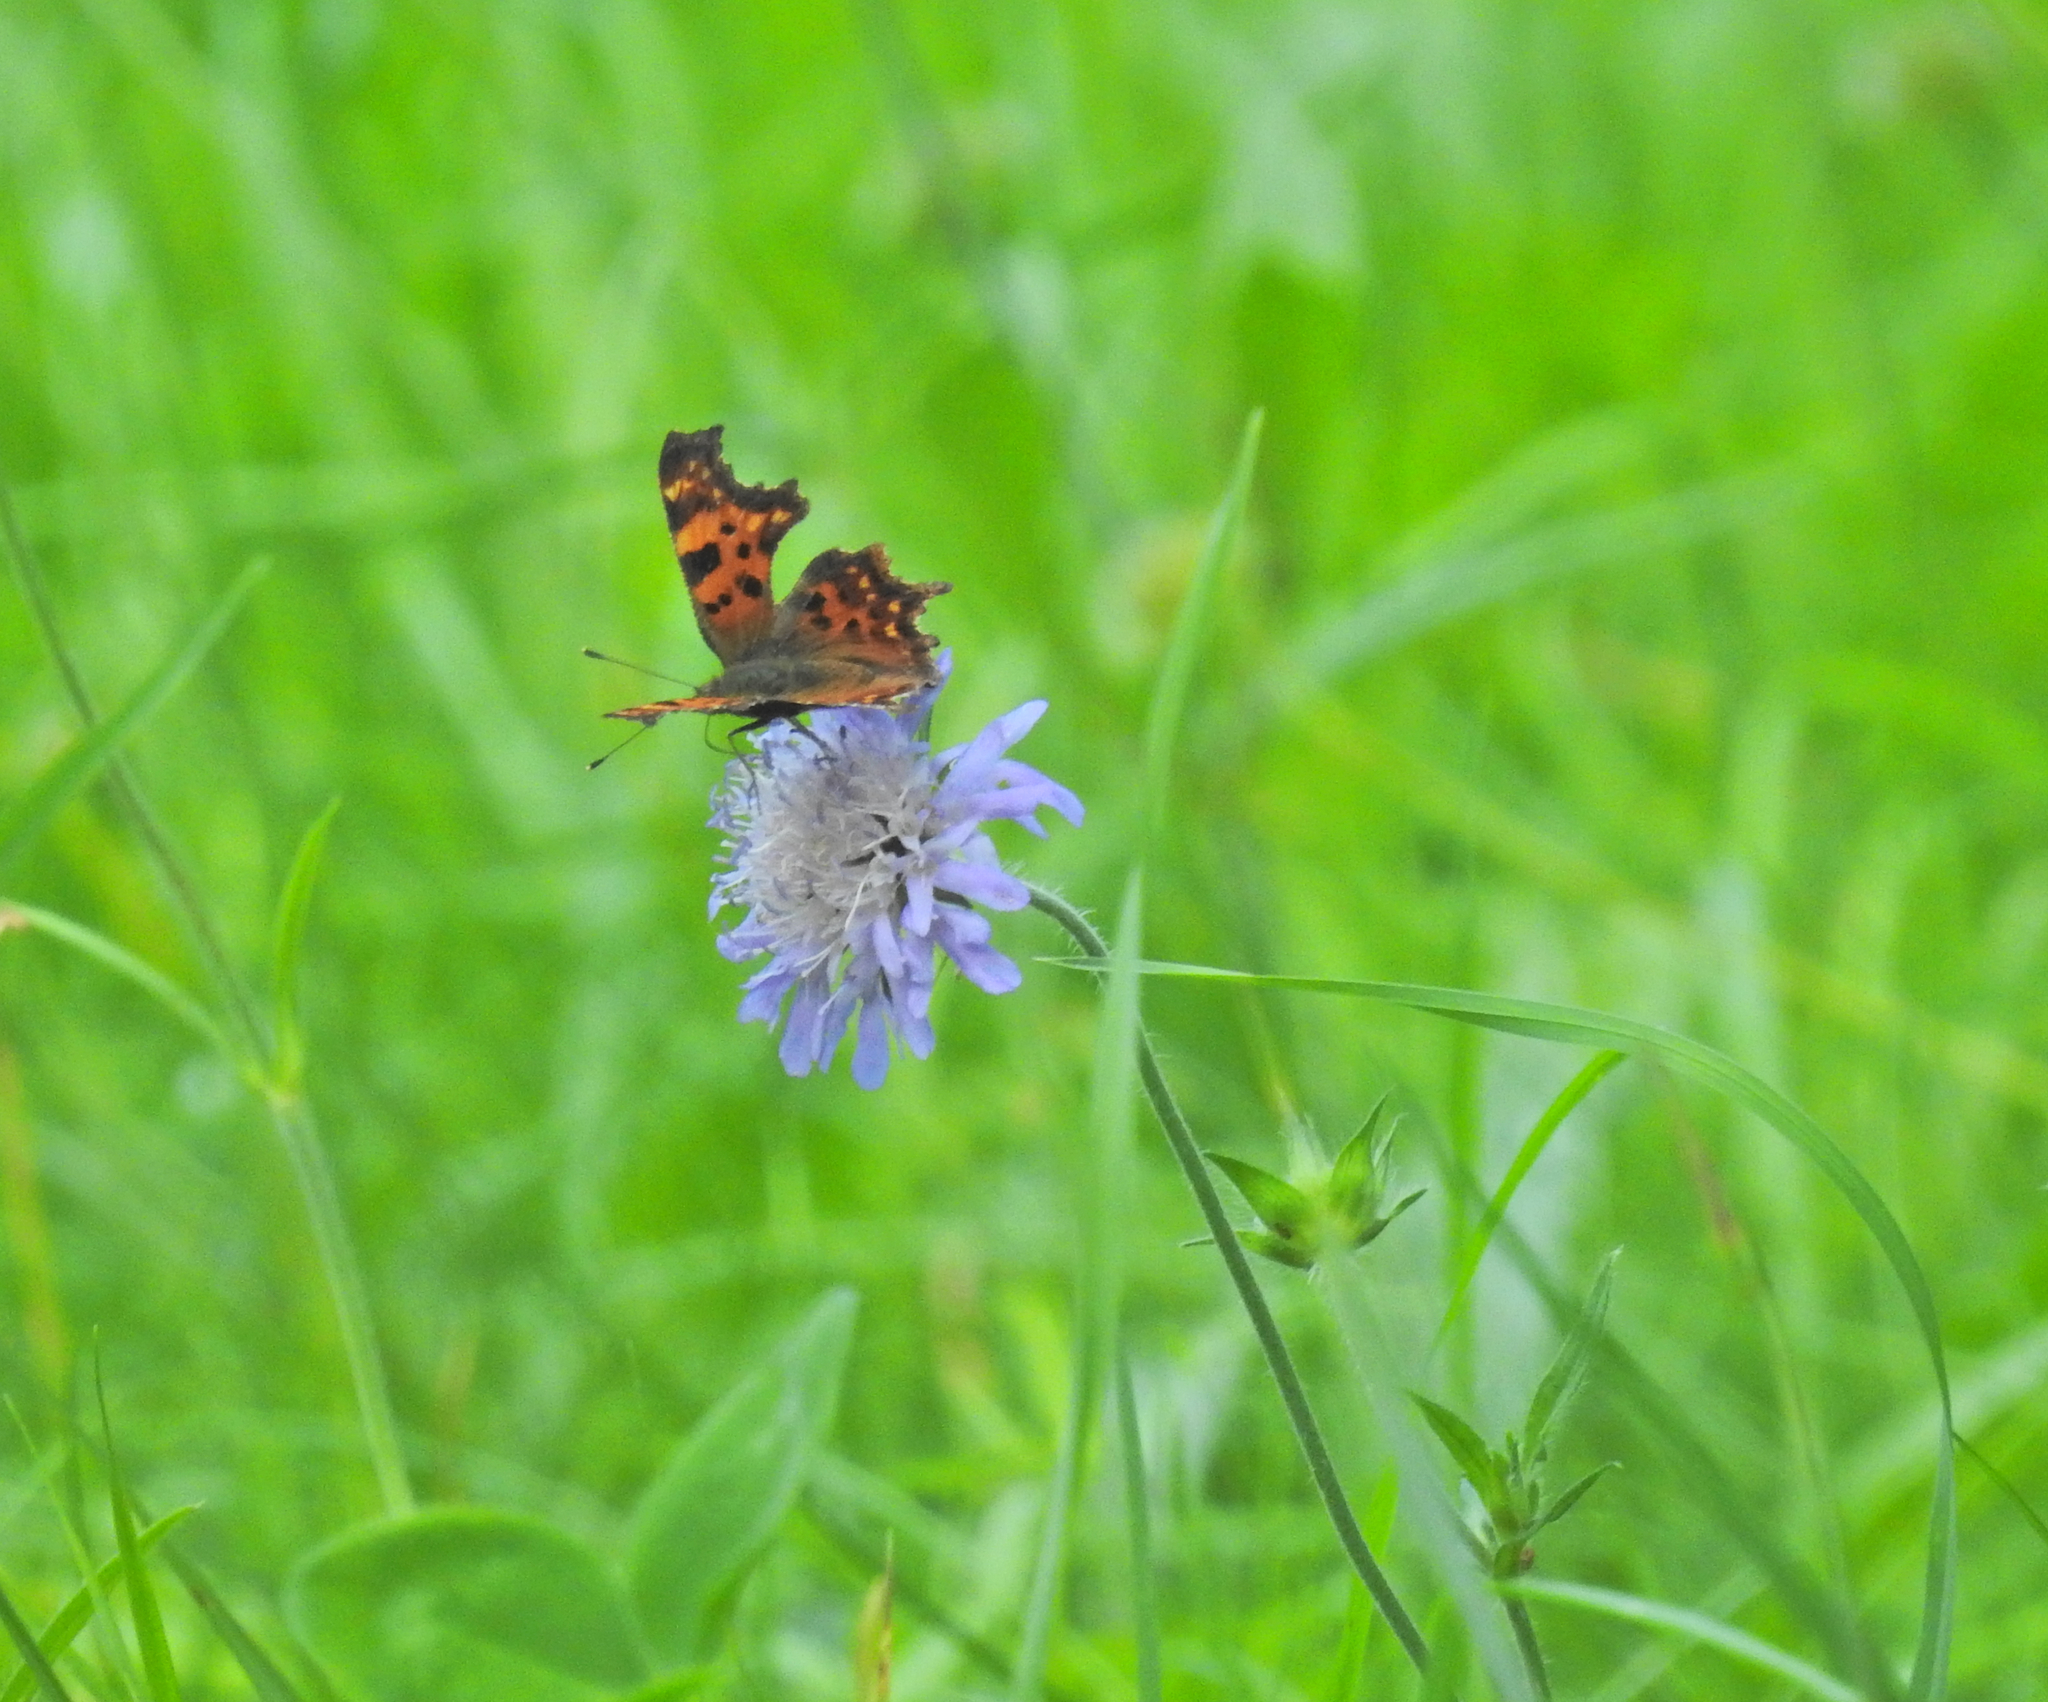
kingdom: Animalia
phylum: Arthropoda
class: Insecta
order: Lepidoptera
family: Nymphalidae
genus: Polygonia
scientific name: Polygonia c-album
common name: Comma
